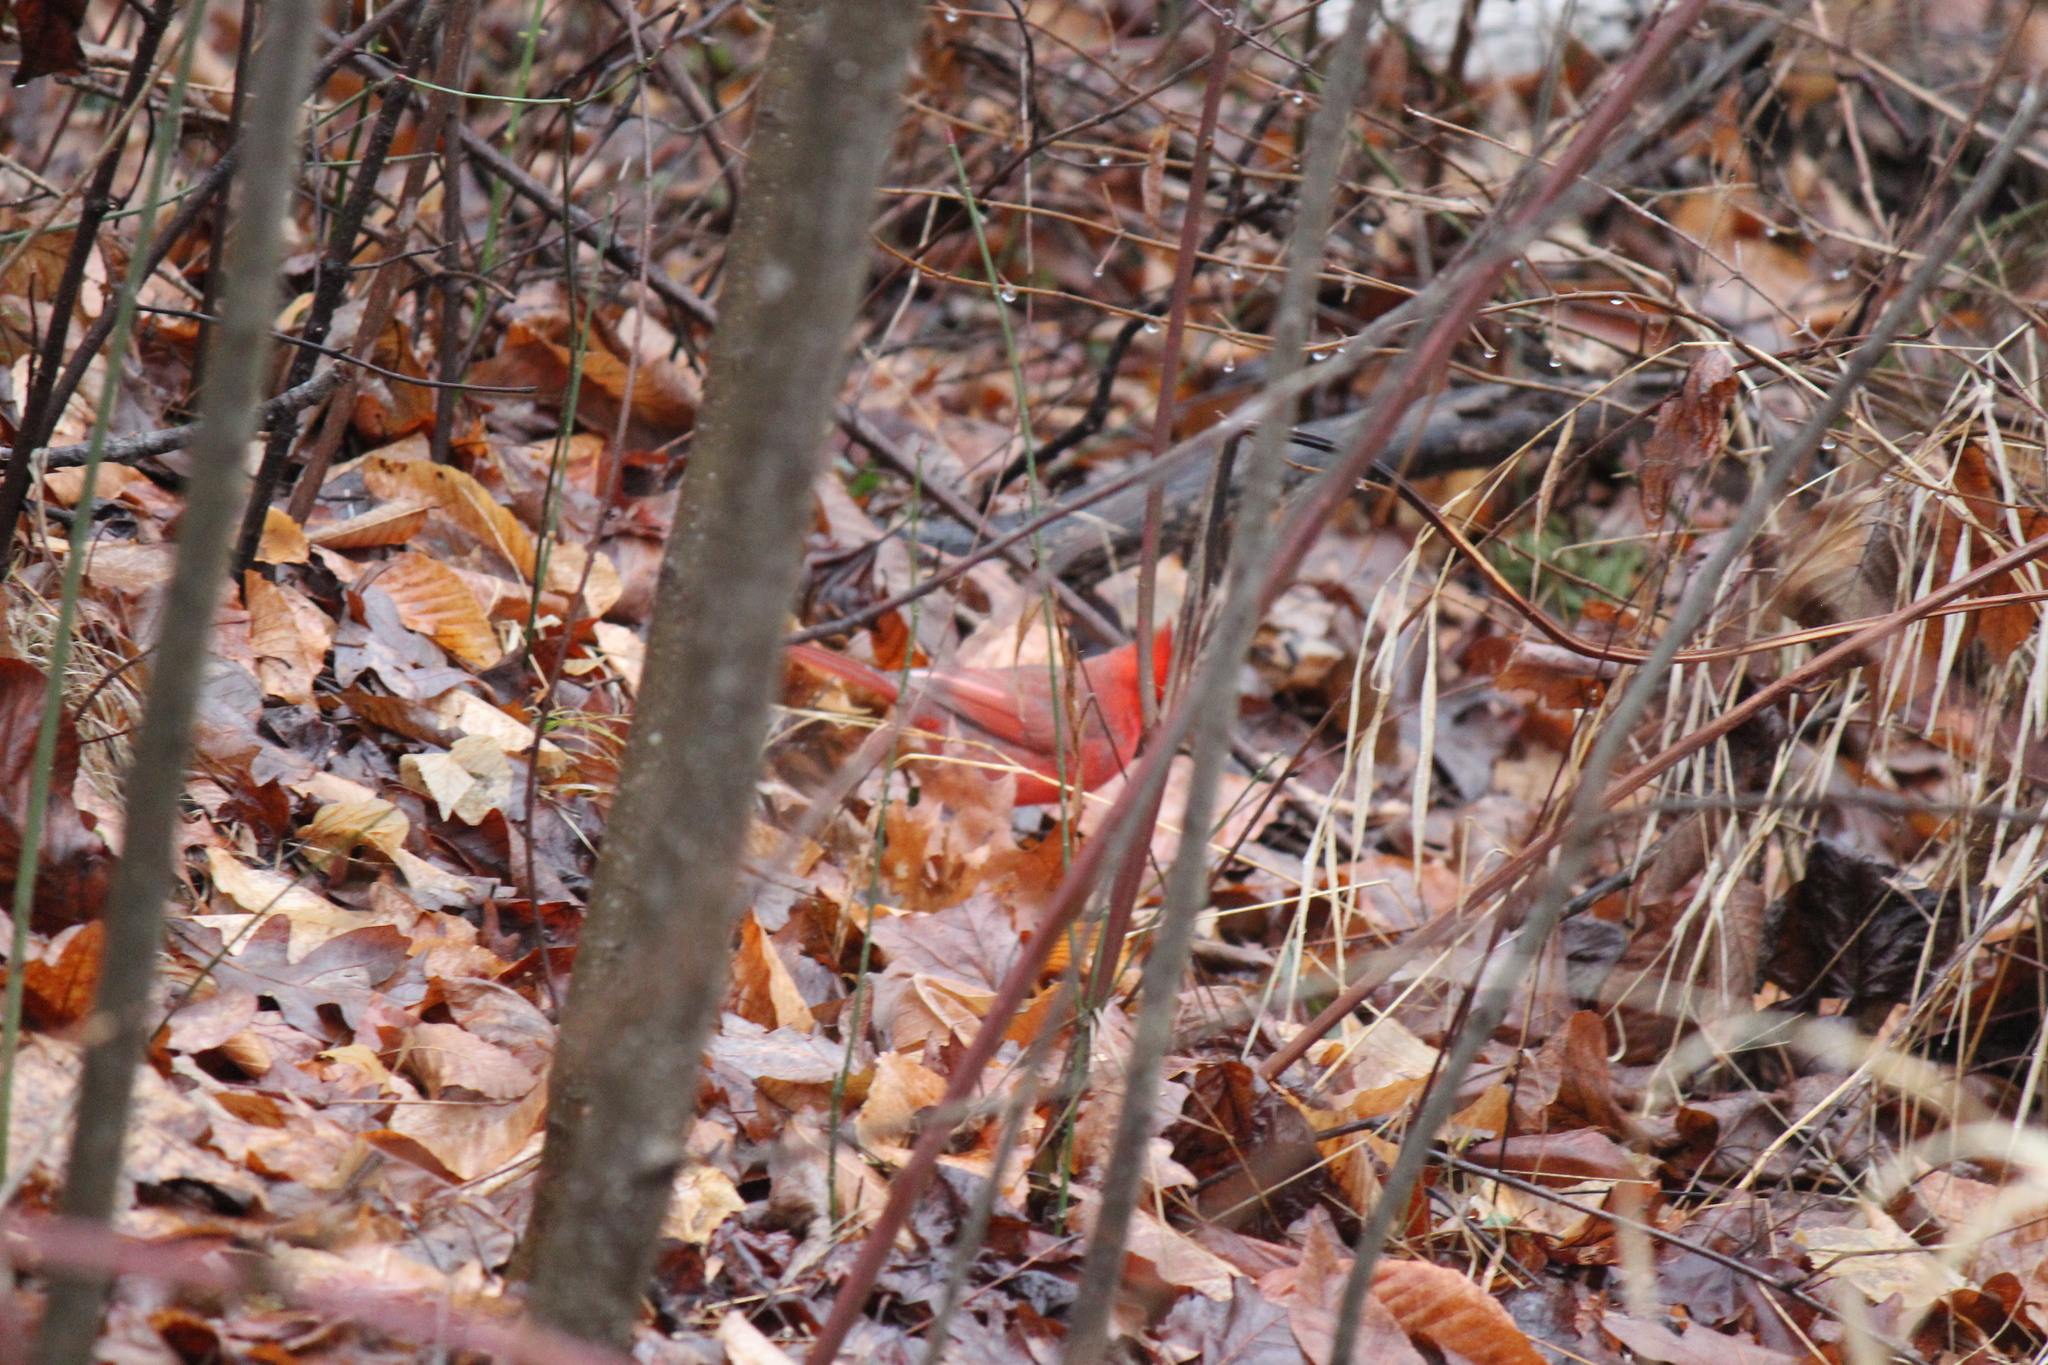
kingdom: Animalia
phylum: Chordata
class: Aves
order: Passeriformes
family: Cardinalidae
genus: Cardinalis
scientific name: Cardinalis cardinalis
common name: Northern cardinal
